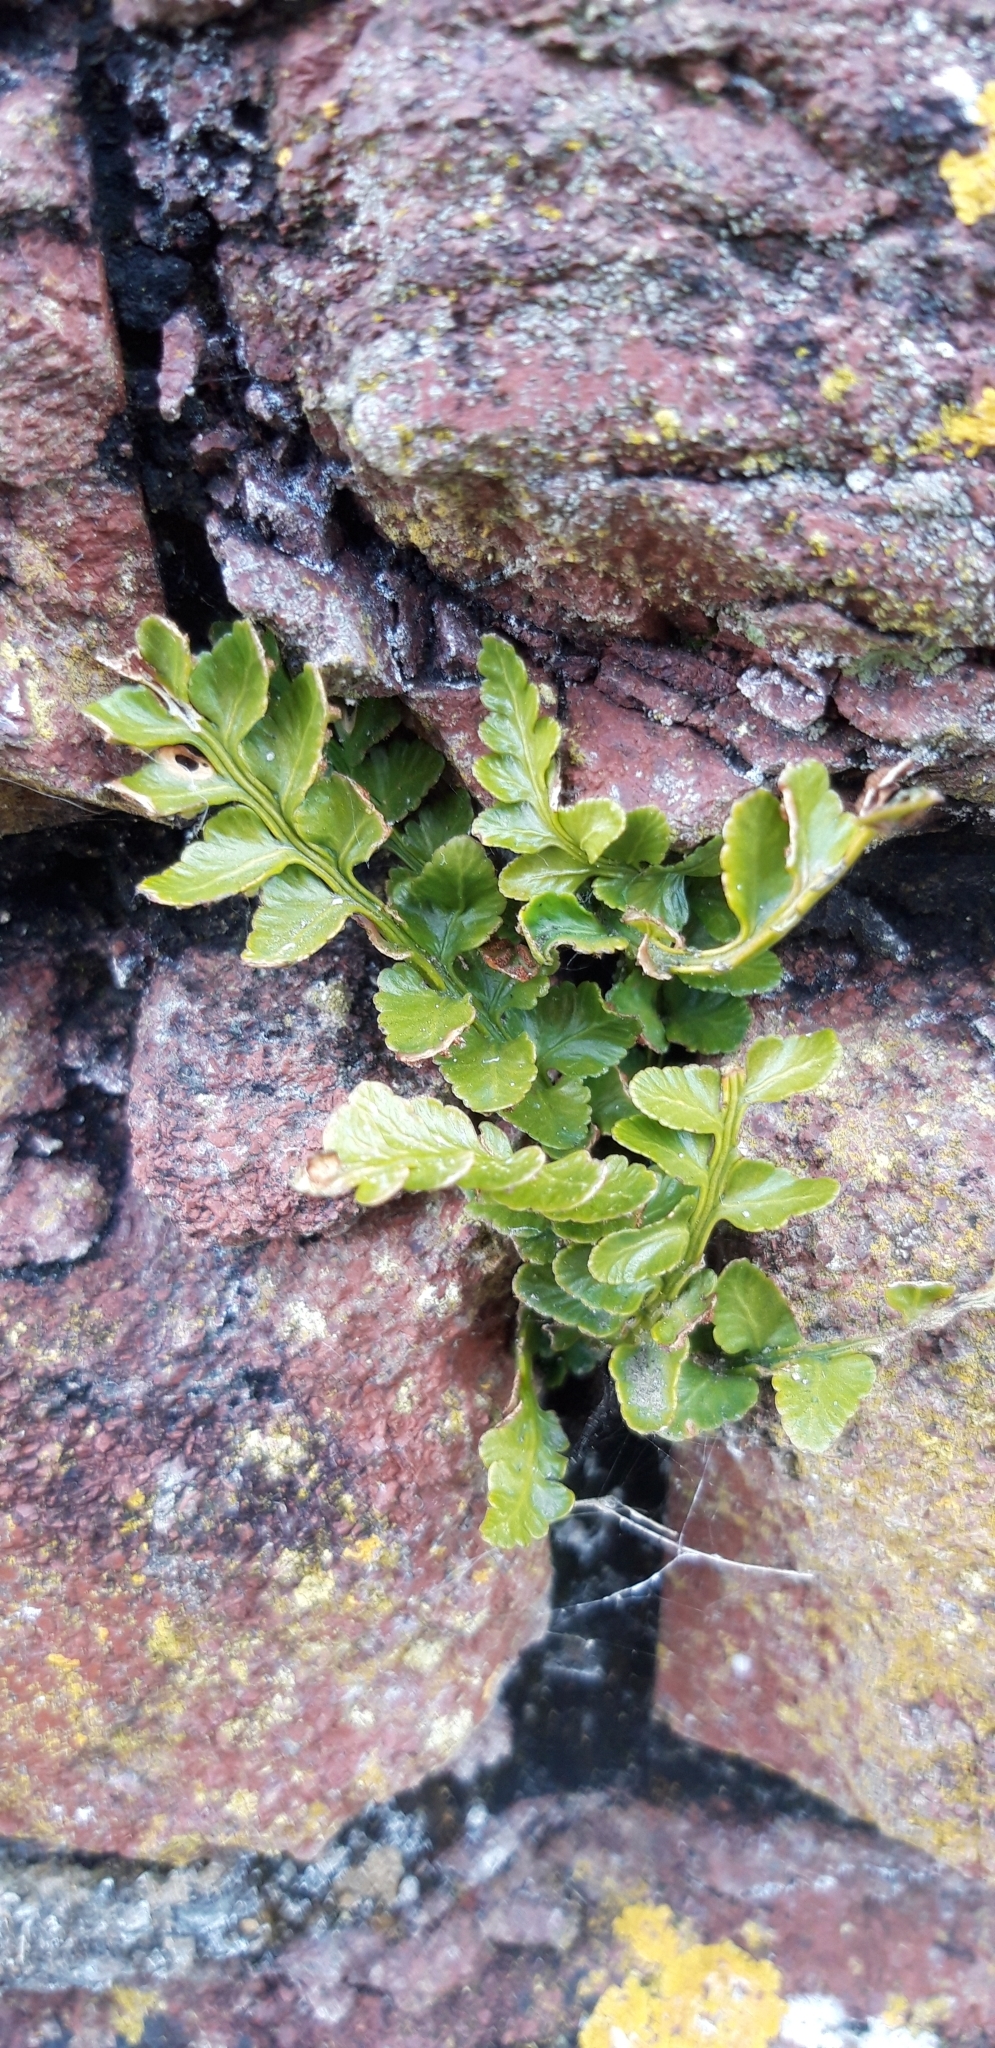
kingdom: Plantae
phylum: Tracheophyta
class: Polypodiopsida
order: Polypodiales
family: Aspleniaceae
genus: Asplenium
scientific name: Asplenium marinum
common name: Sea spleenwort
